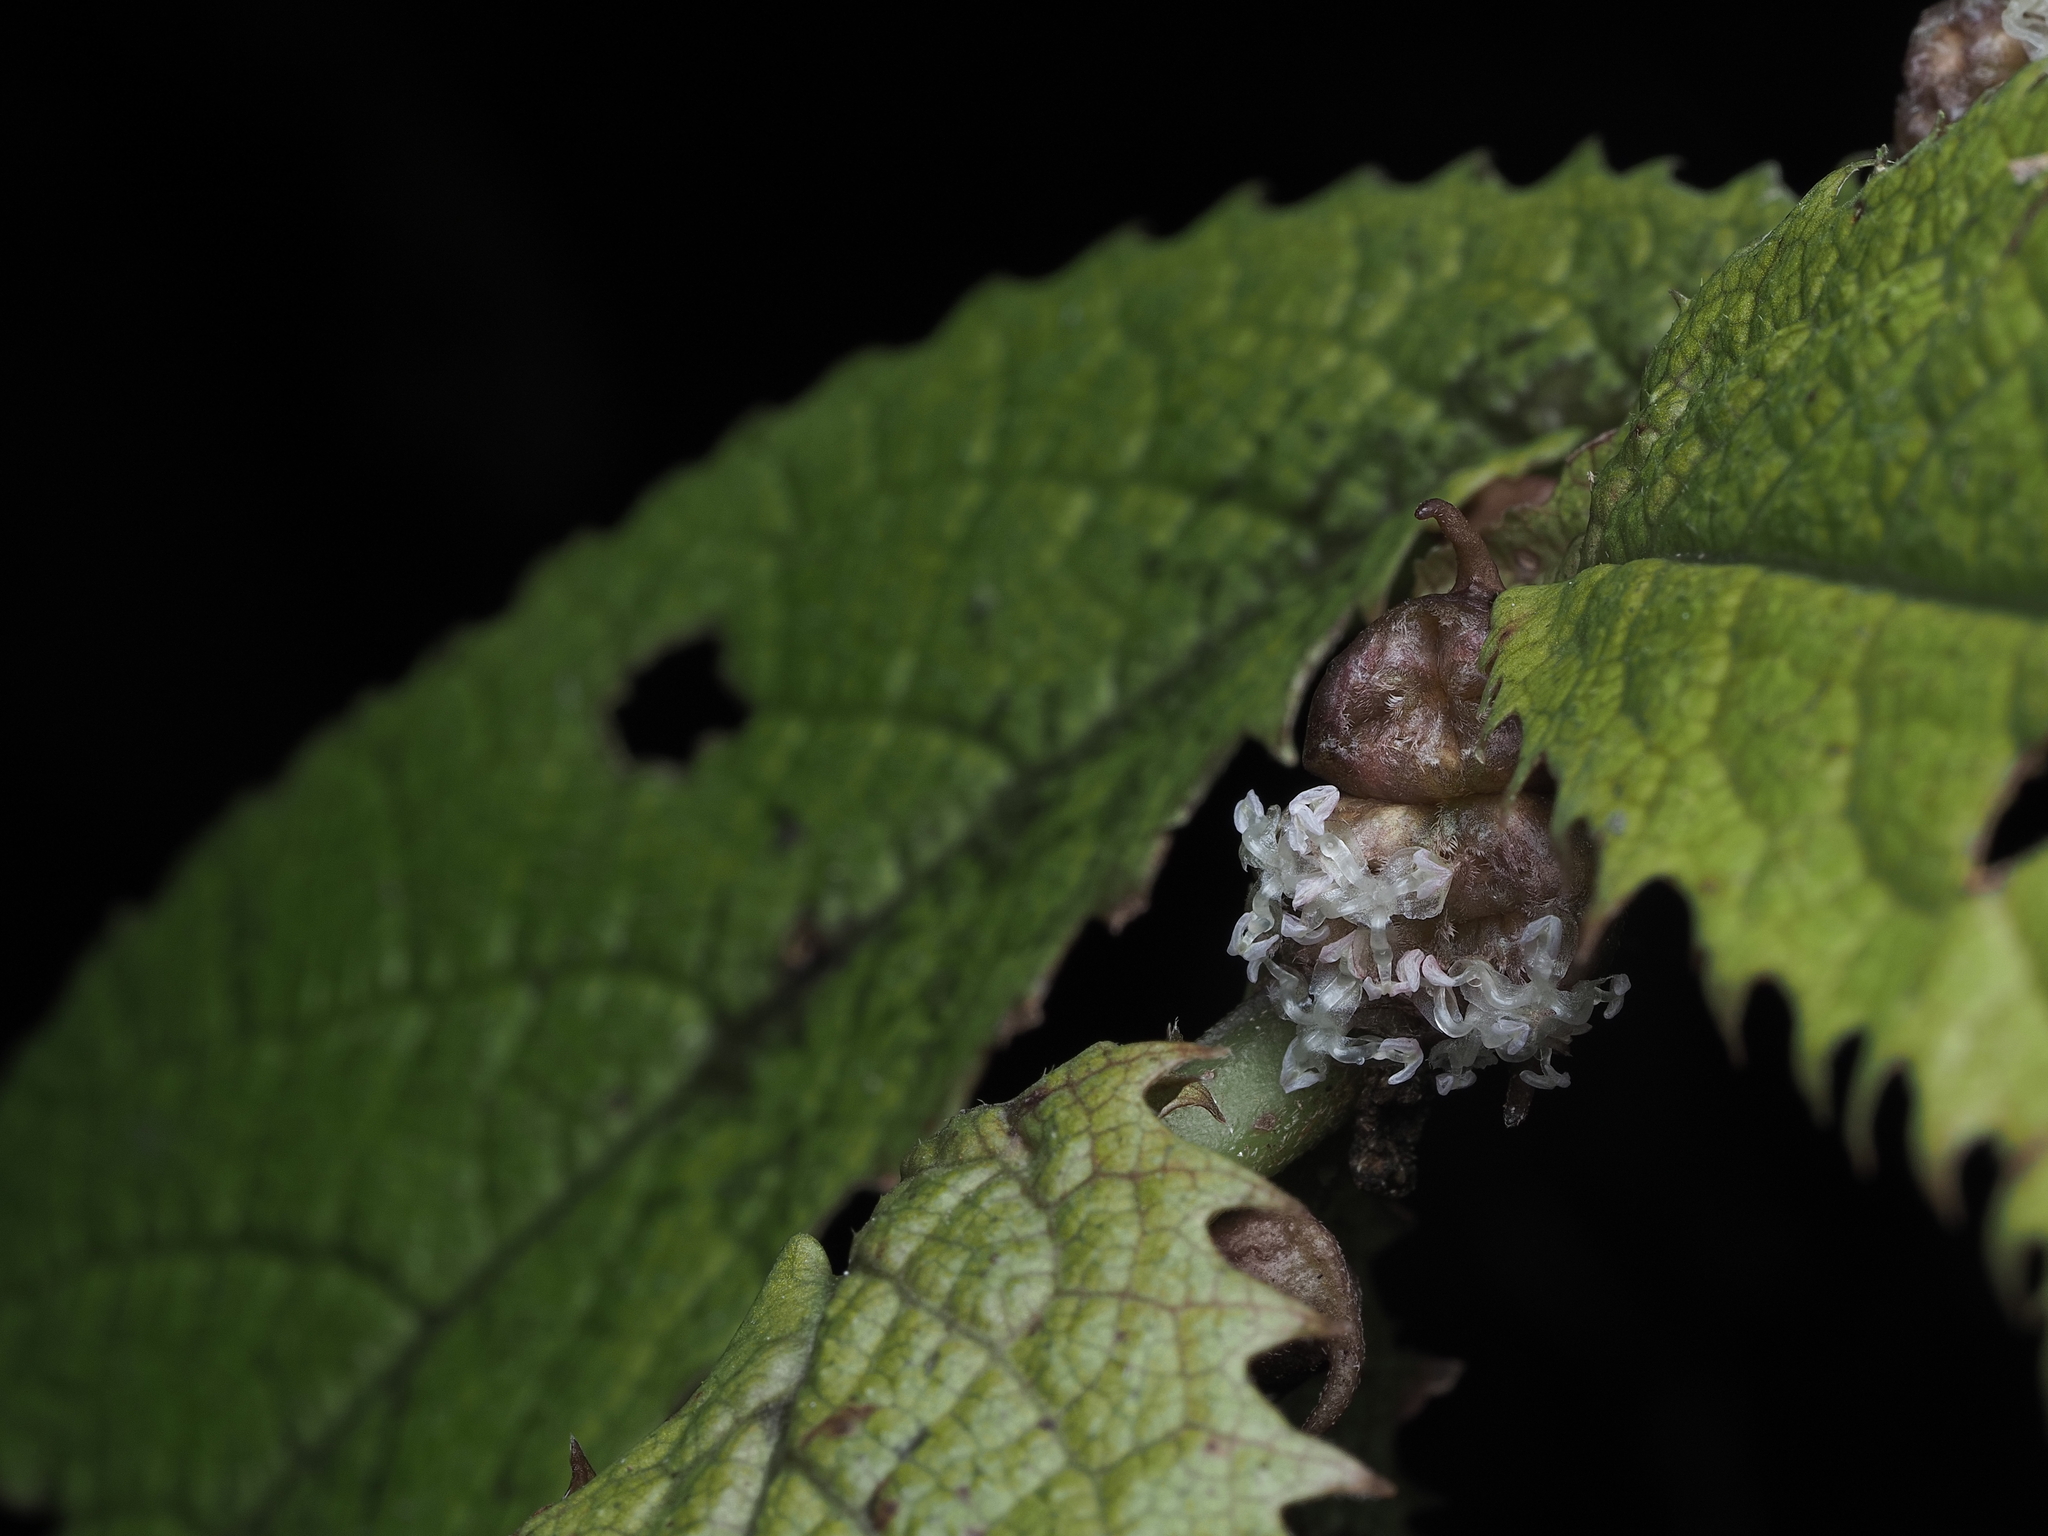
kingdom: Plantae
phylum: Tracheophyta
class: Magnoliopsida
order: Rosales
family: Urticaceae
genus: Elatostema
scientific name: Elatostema rugosum
